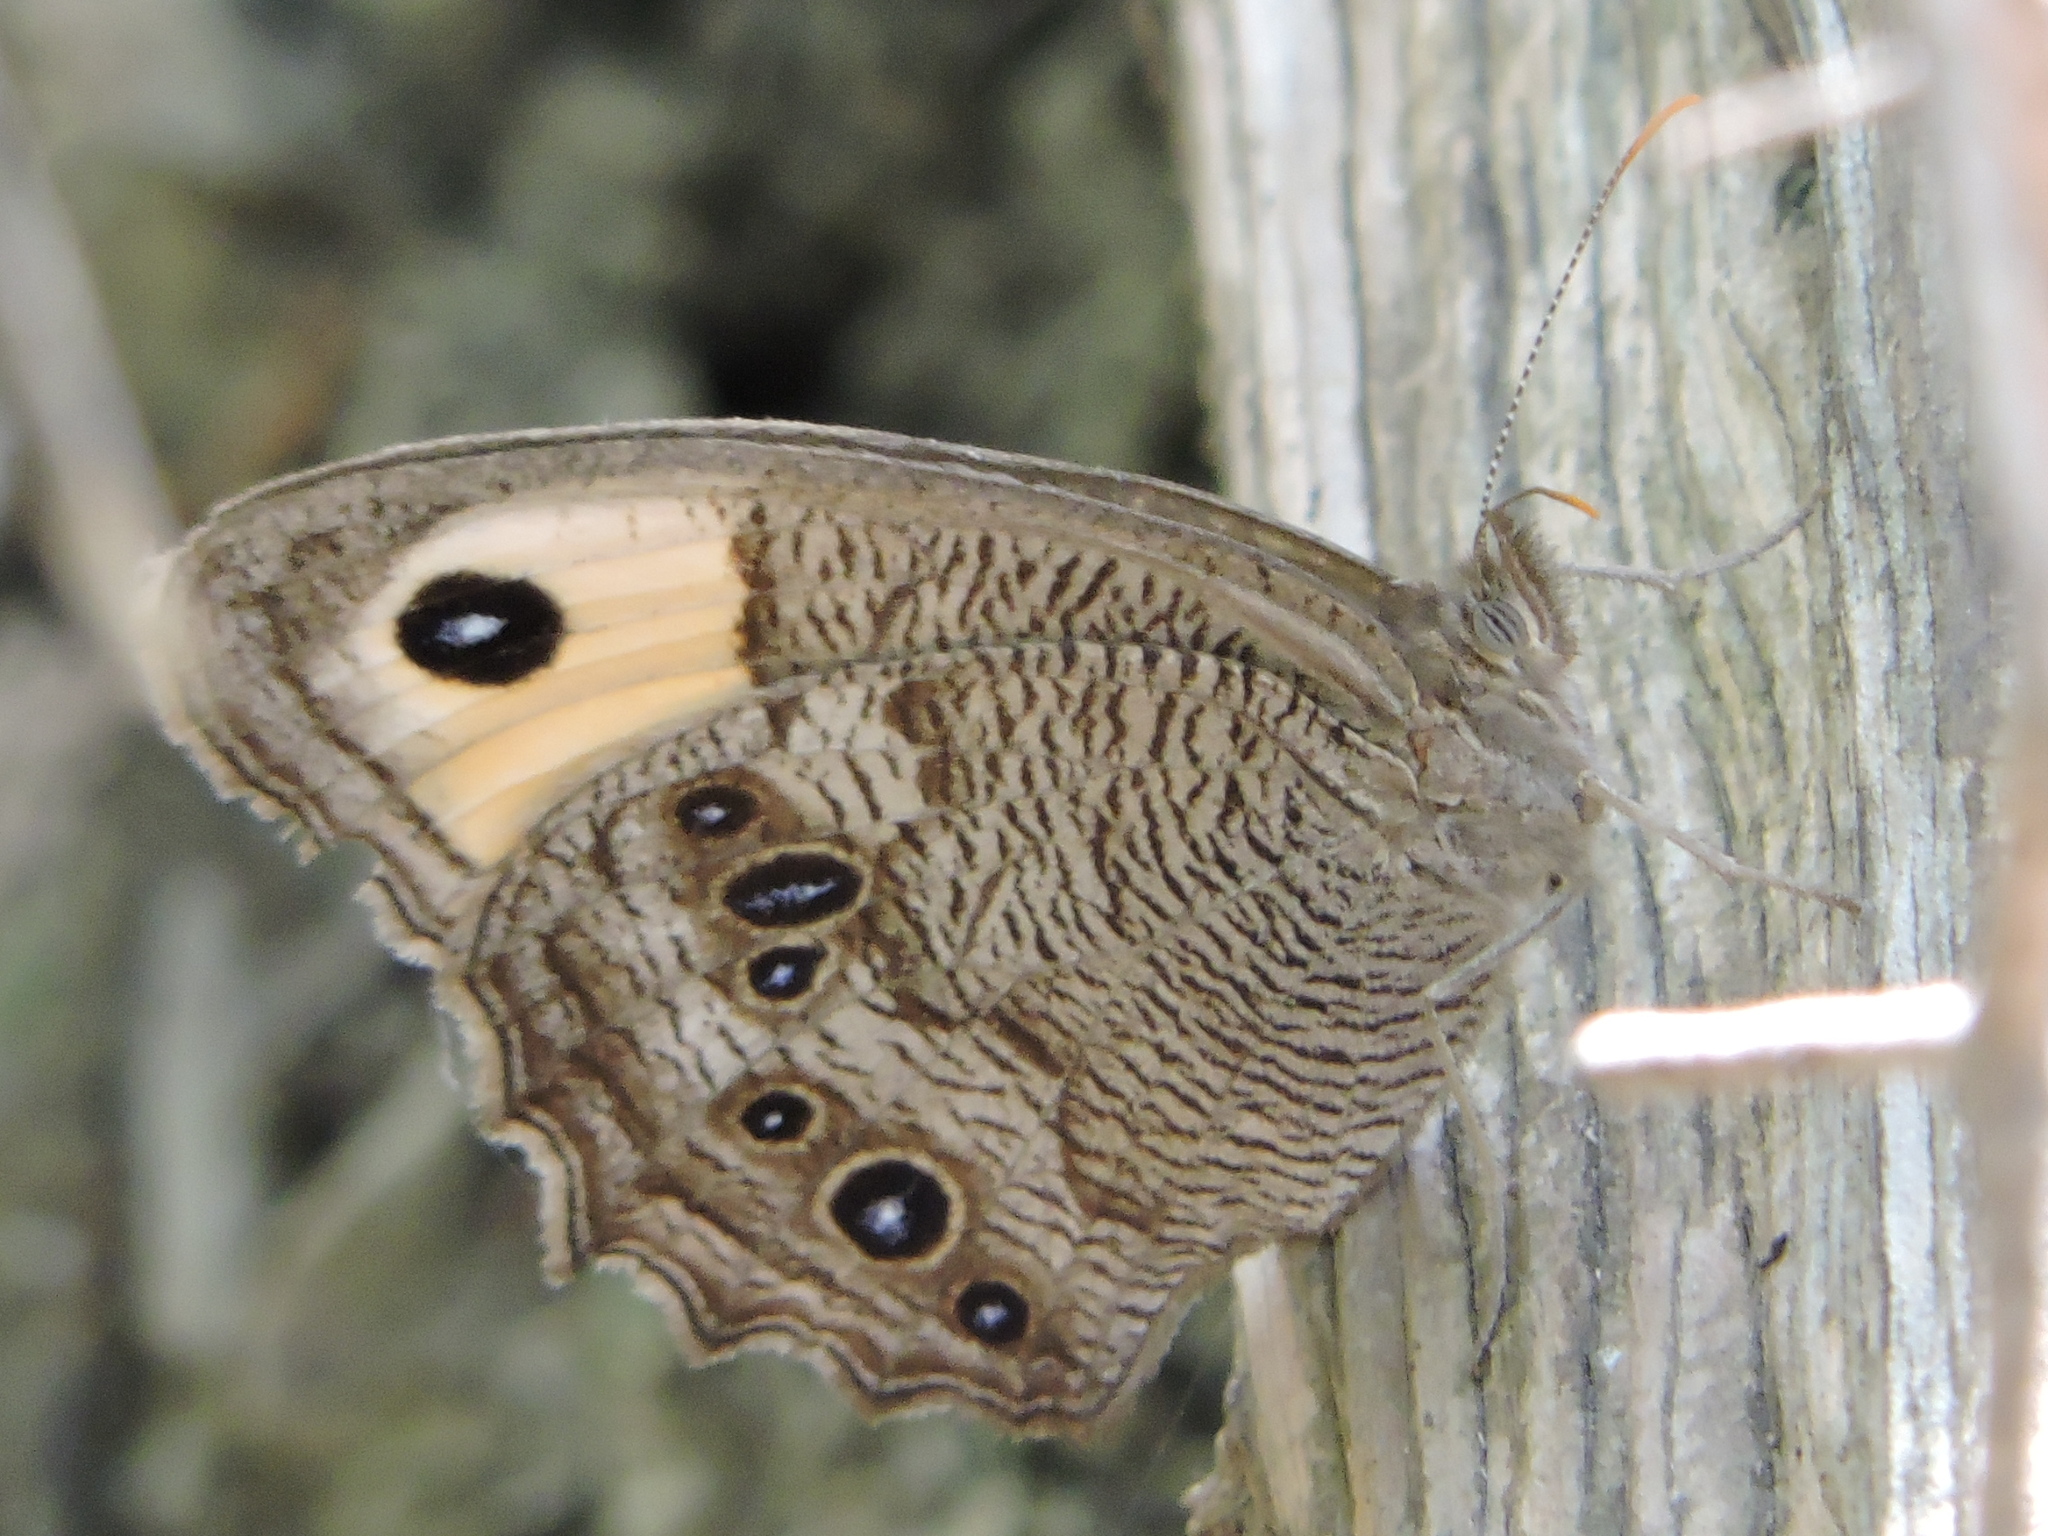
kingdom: Animalia
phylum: Arthropoda
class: Insecta
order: Lepidoptera
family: Nymphalidae
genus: Cercyonis
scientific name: Cercyonis pegala
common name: Common wood-nymph
